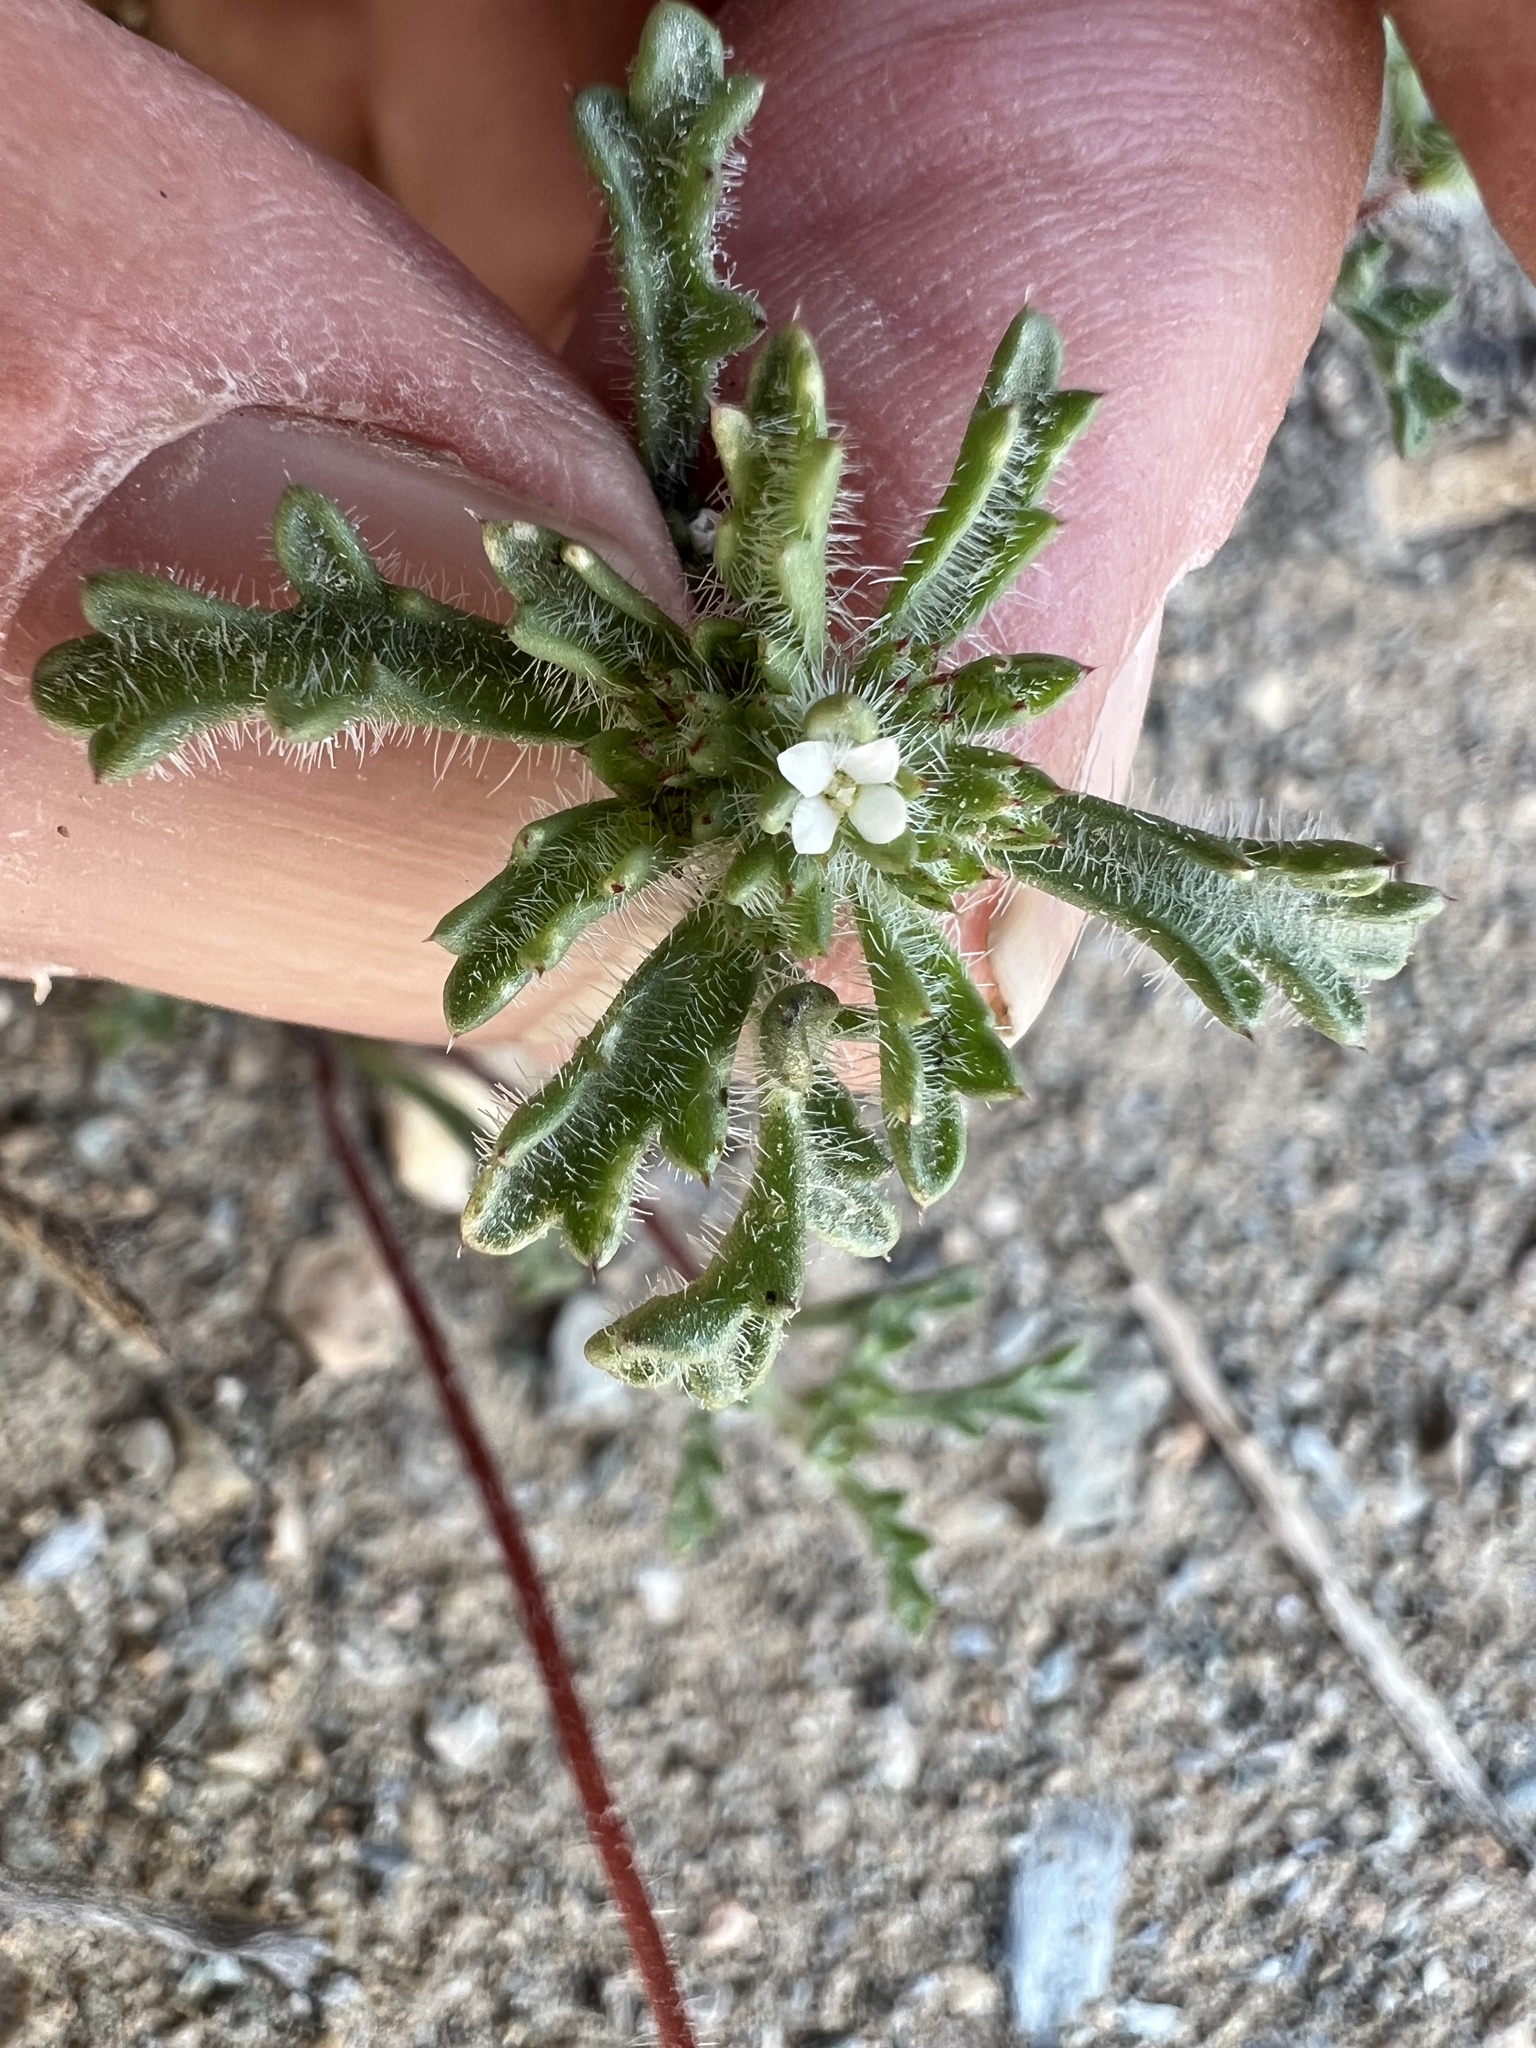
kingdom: Plantae
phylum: Tracheophyta
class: Magnoliopsida
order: Ericales
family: Polemoniaceae
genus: Ipomopsis
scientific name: Ipomopsis polycladon
